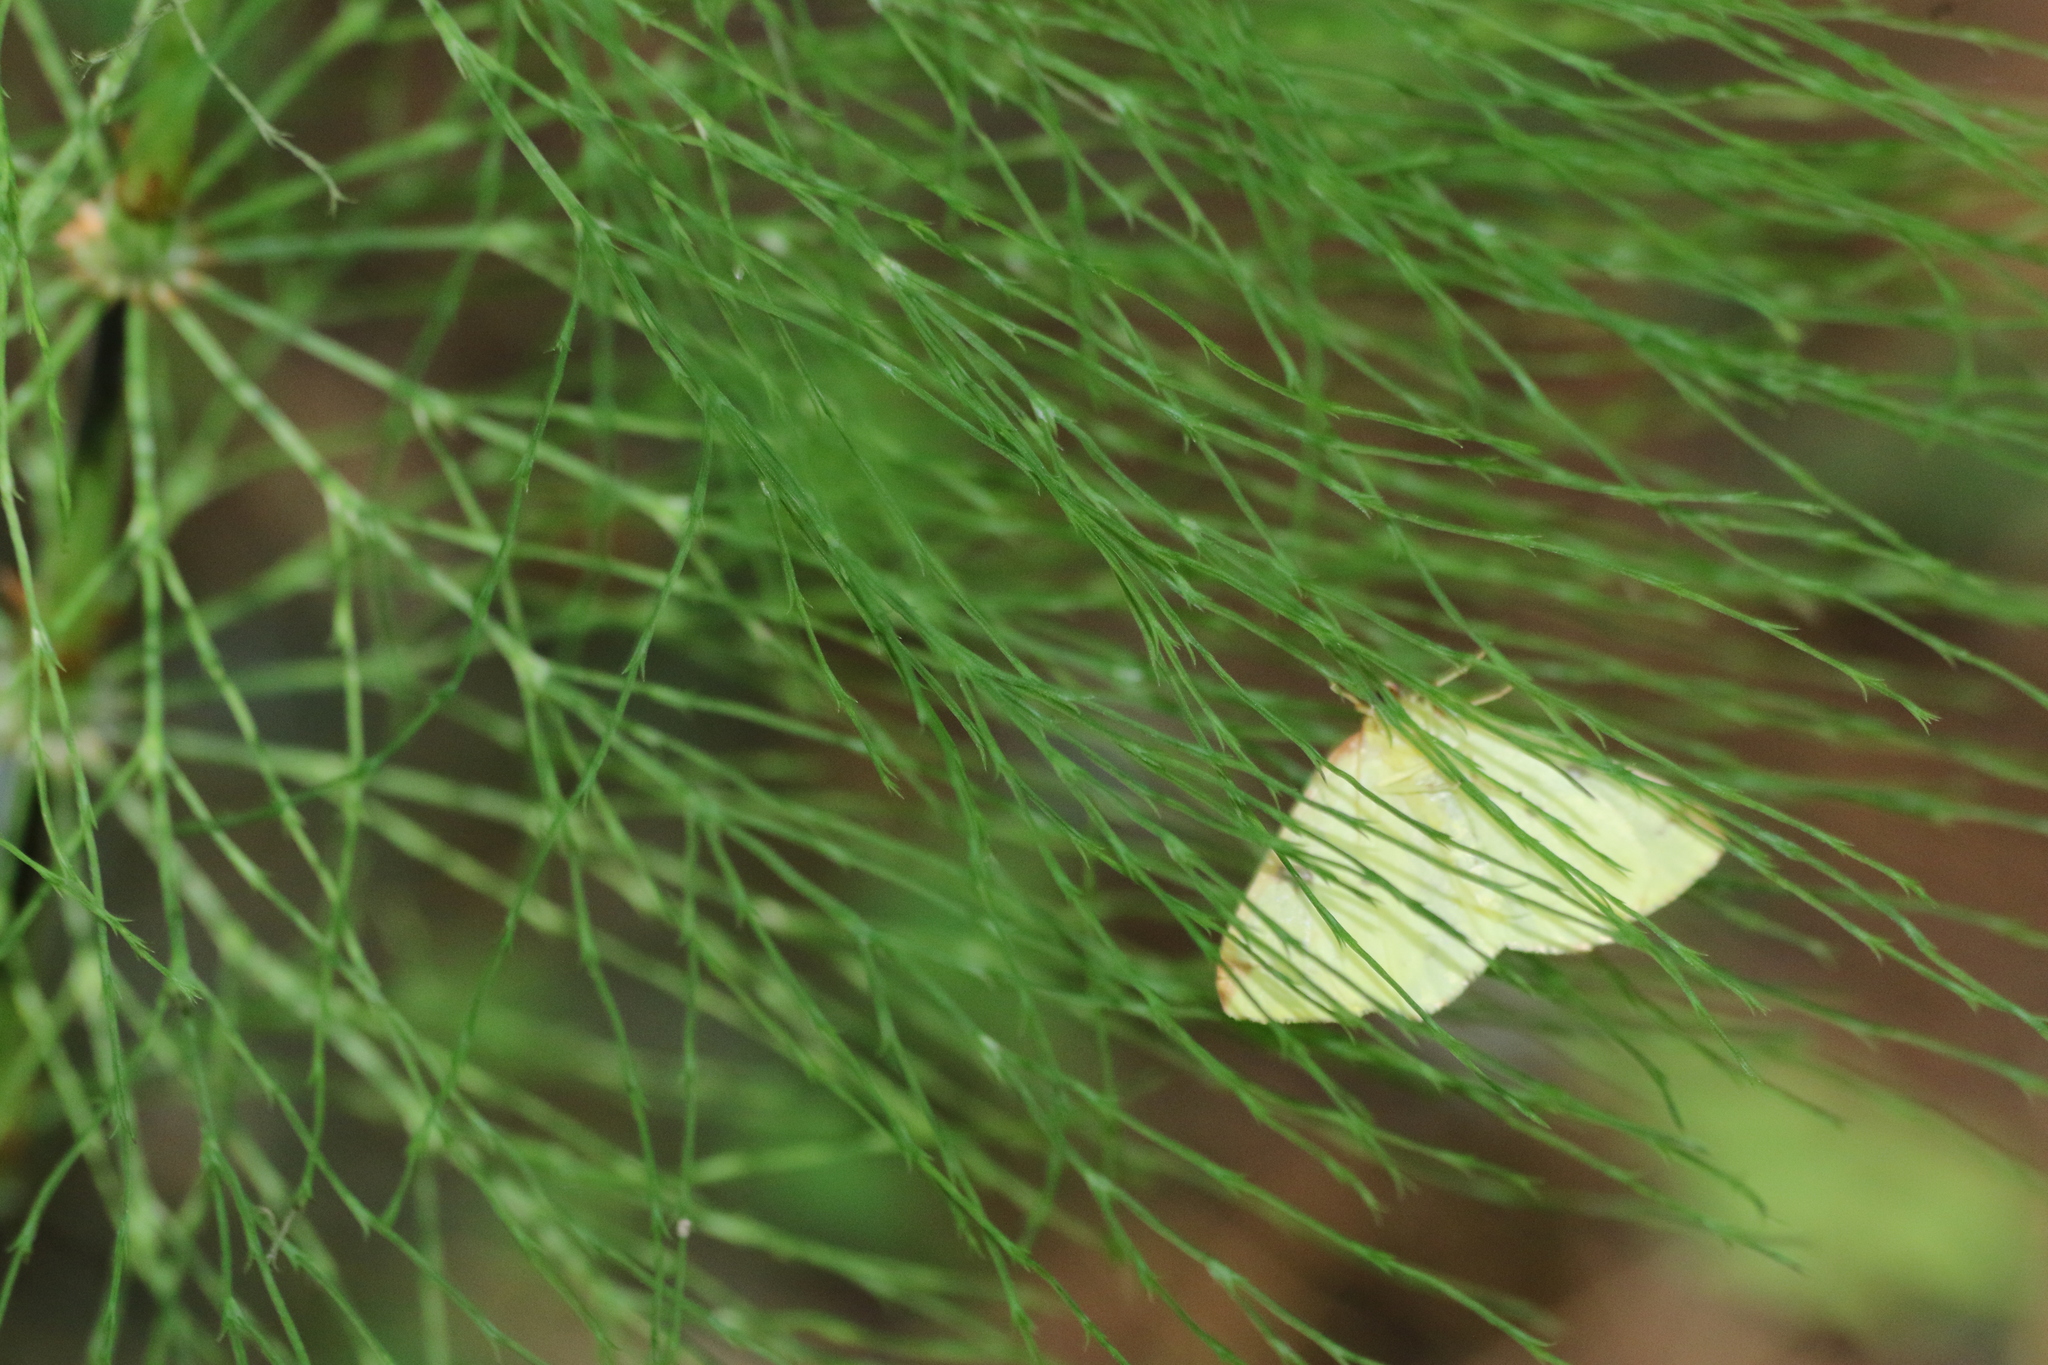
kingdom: Animalia
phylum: Arthropoda
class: Insecta
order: Lepidoptera
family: Geometridae
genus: Opisthograptis
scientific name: Opisthograptis luteolata
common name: Brimstone moth
